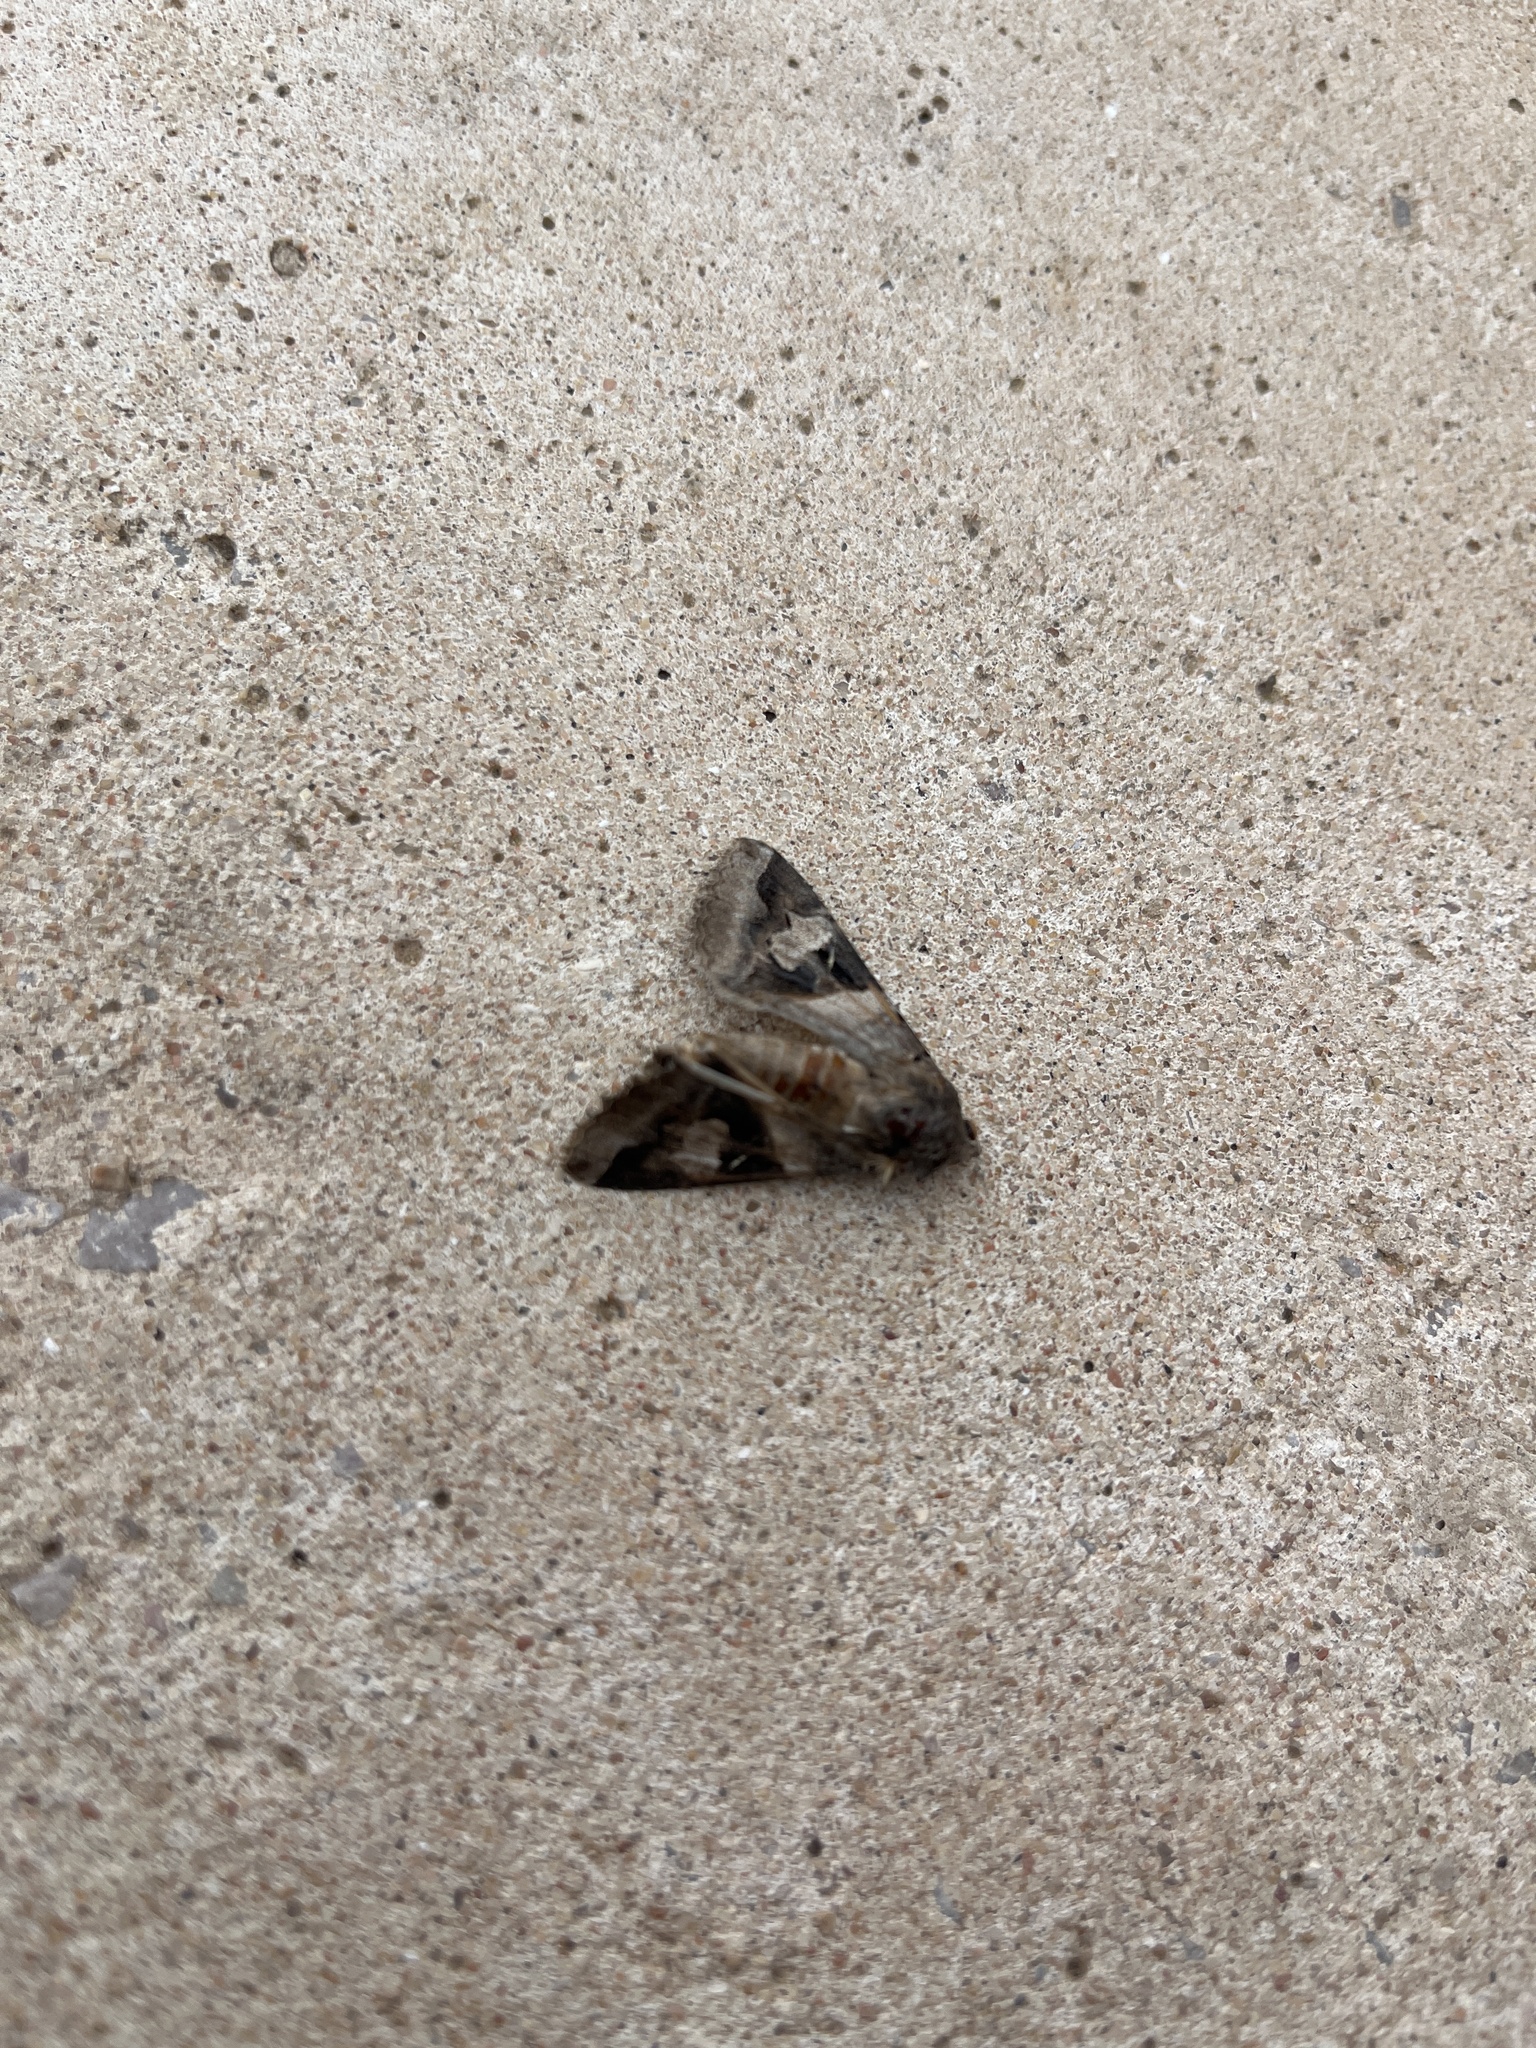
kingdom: Animalia
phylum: Arthropoda
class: Insecta
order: Lepidoptera
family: Erebidae
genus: Melipotis
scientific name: Melipotis indomita
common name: Moth
